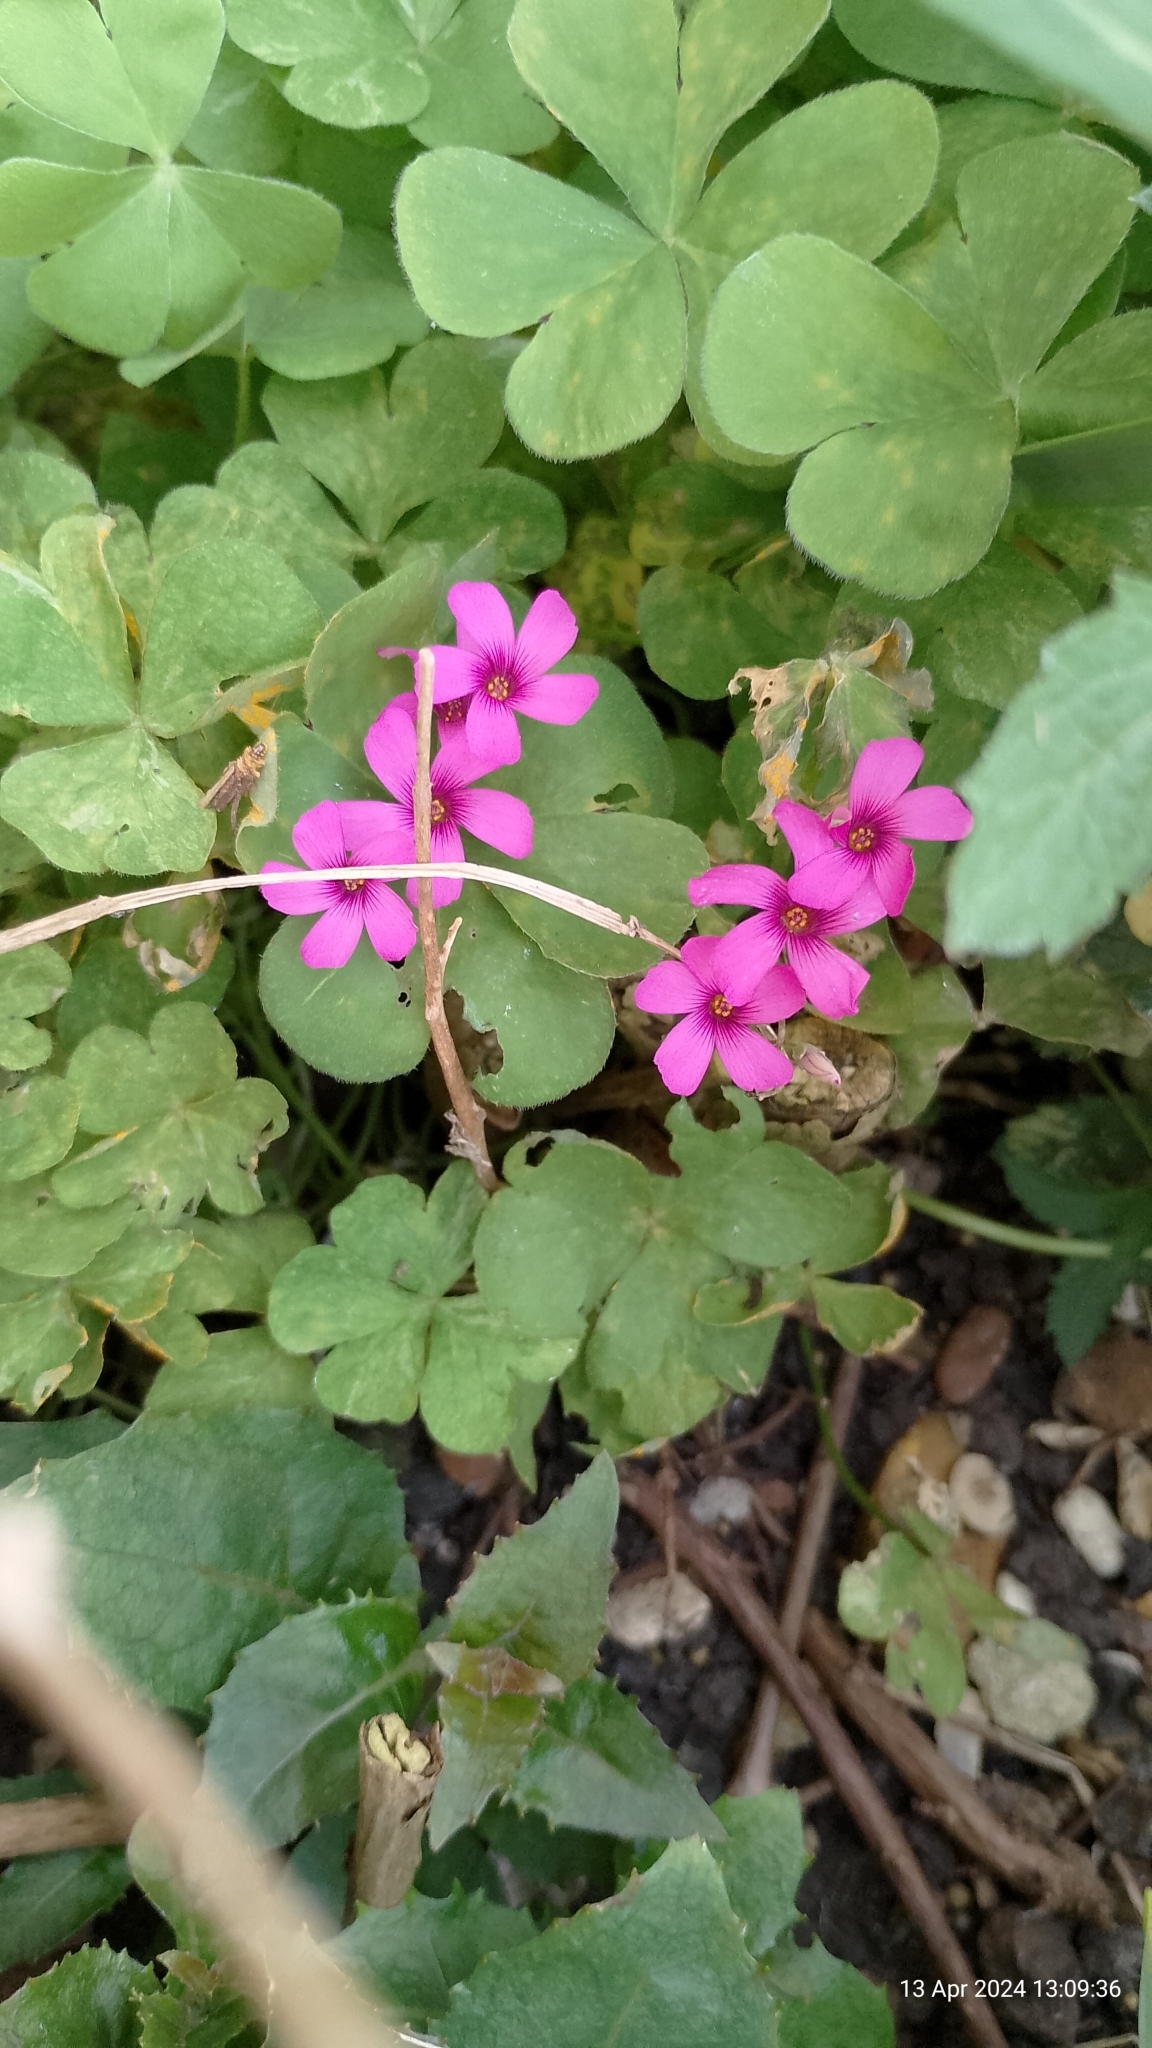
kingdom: Plantae
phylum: Tracheophyta
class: Magnoliopsida
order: Oxalidales
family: Oxalidaceae
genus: Oxalis
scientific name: Oxalis articulata
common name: Pink-sorrel
